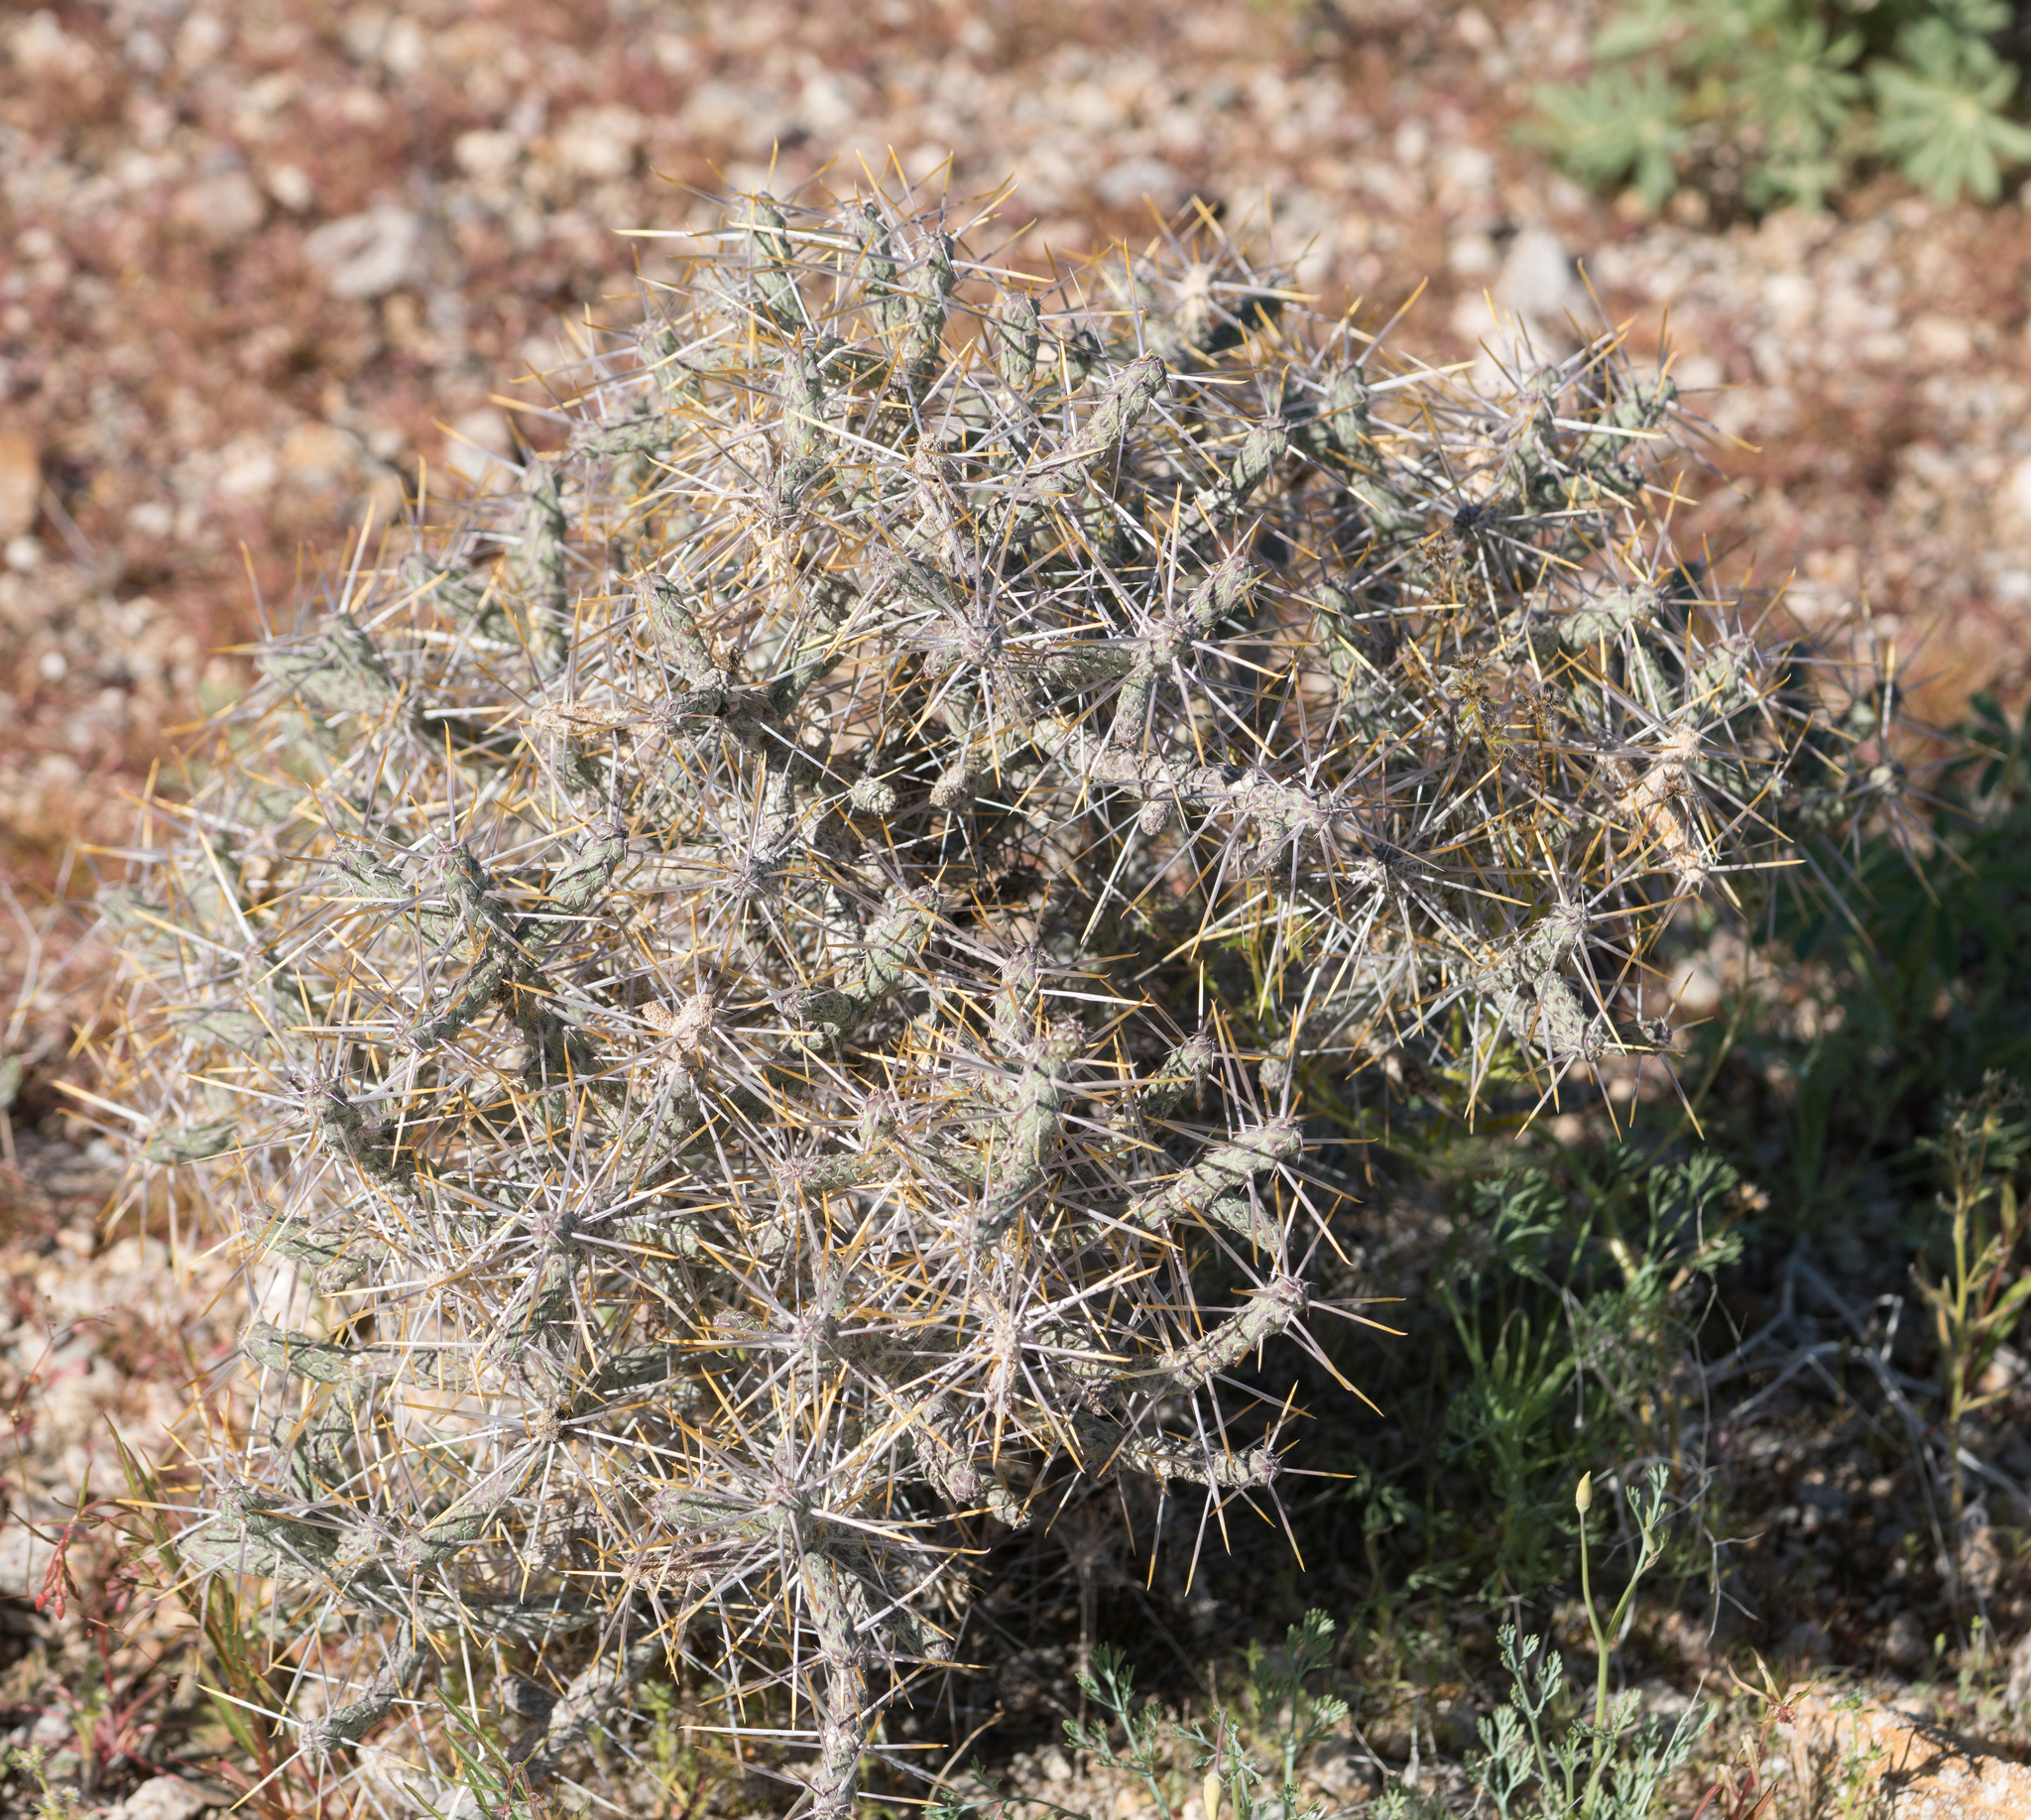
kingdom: Plantae
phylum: Tracheophyta
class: Magnoliopsida
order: Caryophyllales
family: Cactaceae
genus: Cylindropuntia
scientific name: Cylindropuntia ramosissima
